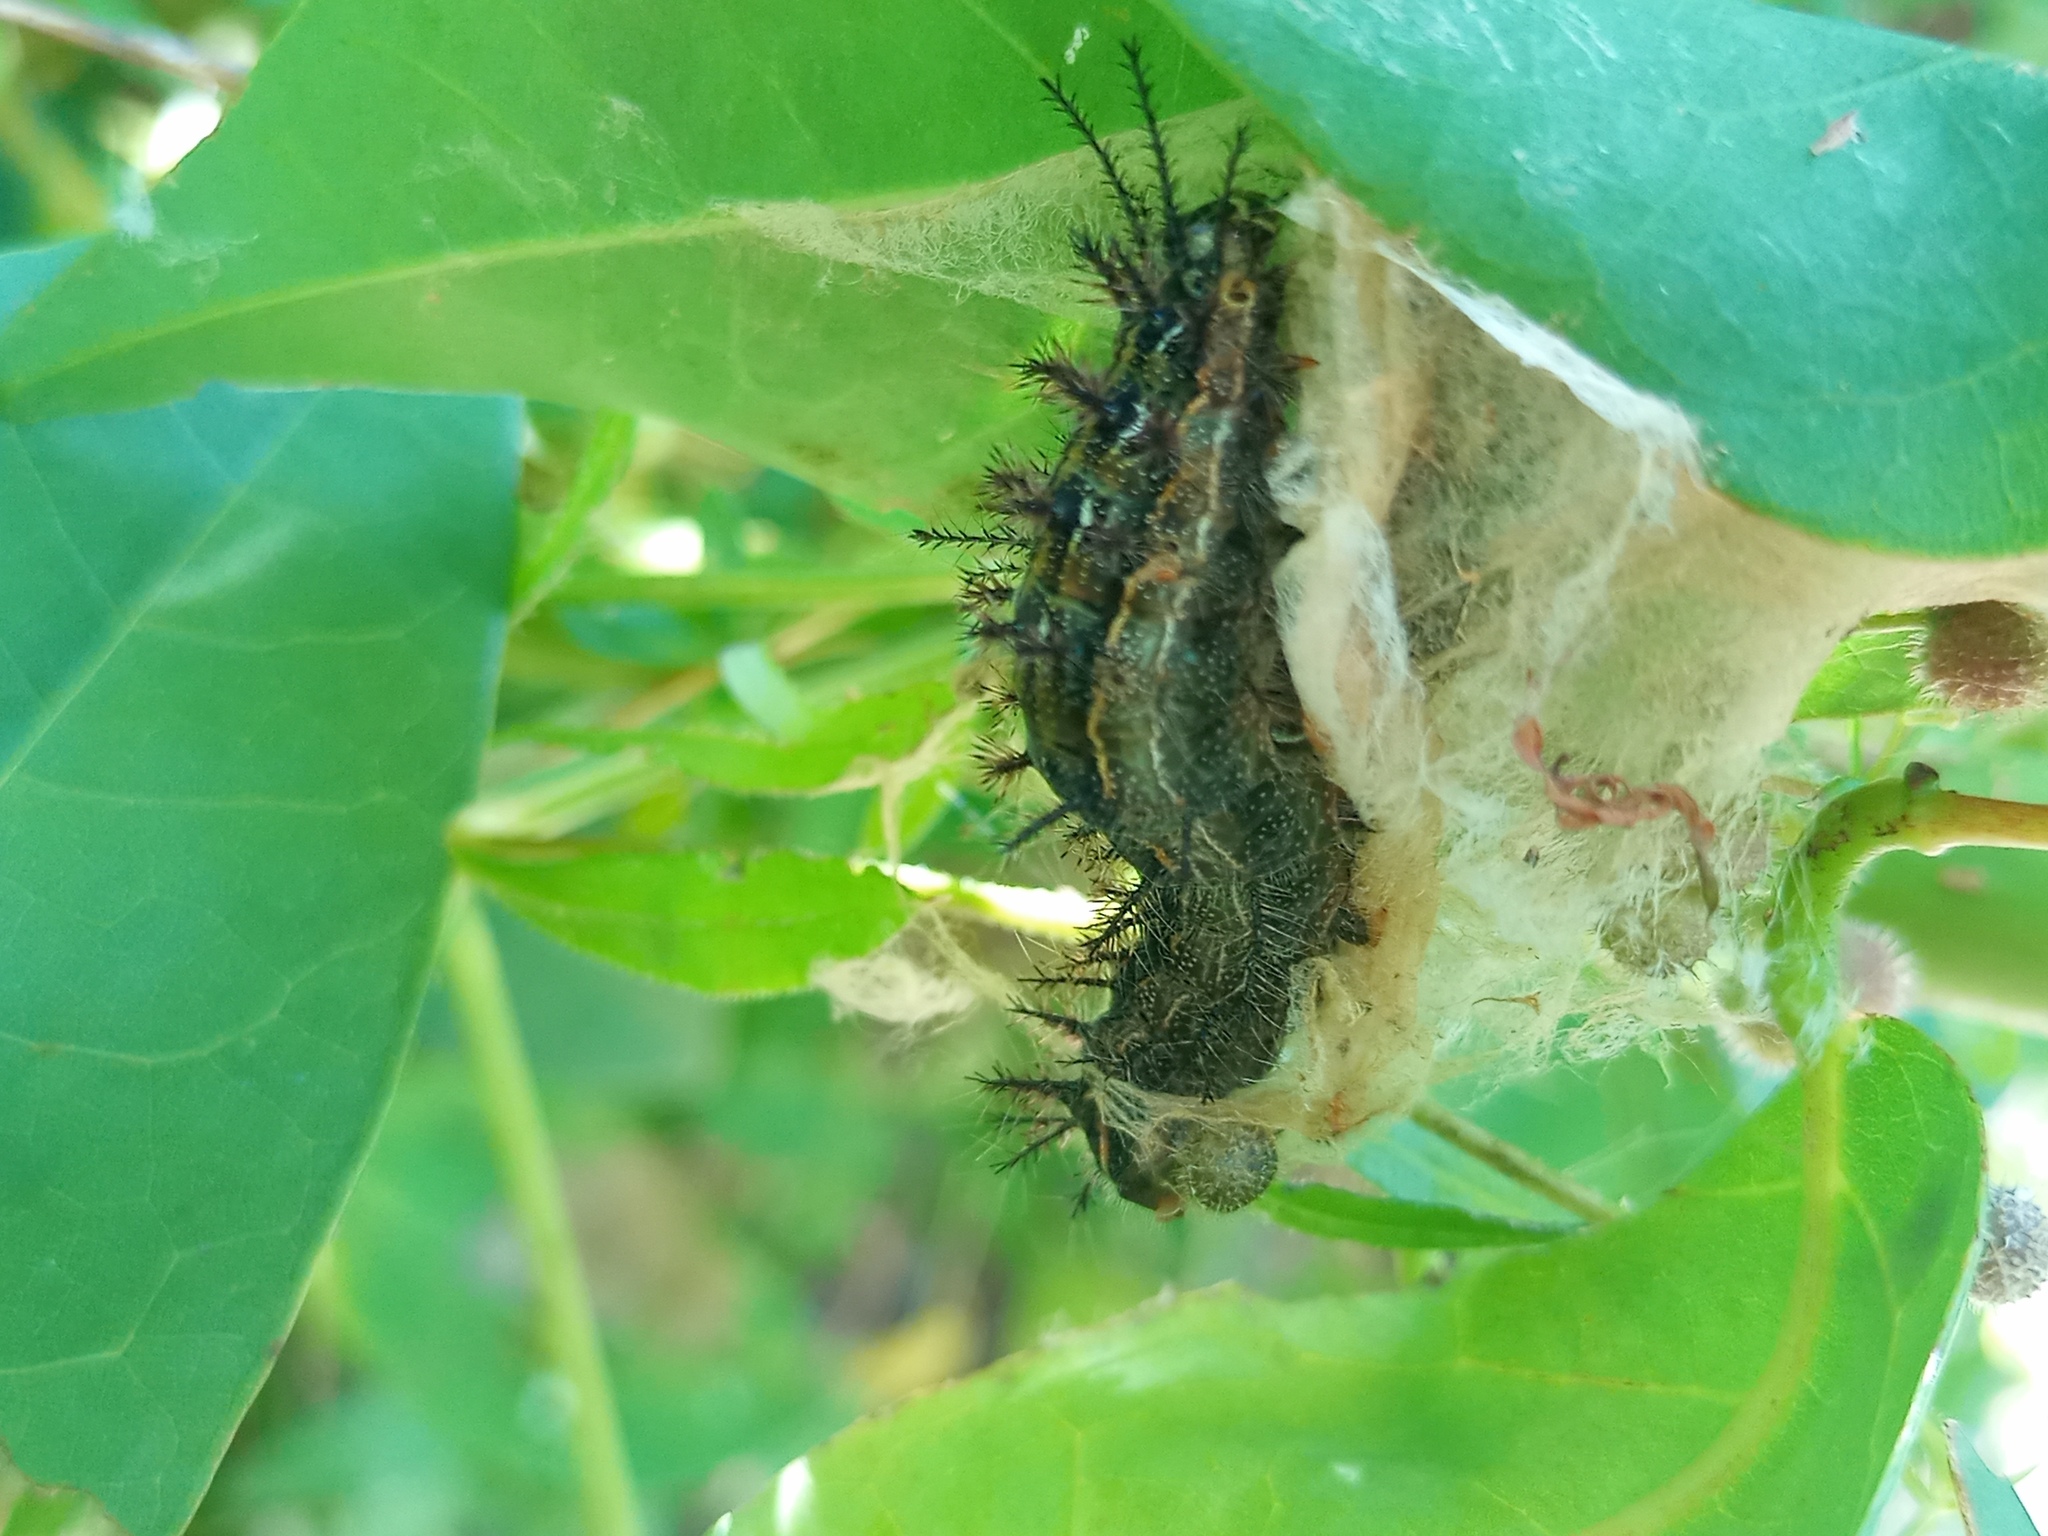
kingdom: Animalia
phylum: Arthropoda
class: Insecta
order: Lepidoptera
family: Saturniidae
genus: Hylesia
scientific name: Hylesia nigricans
